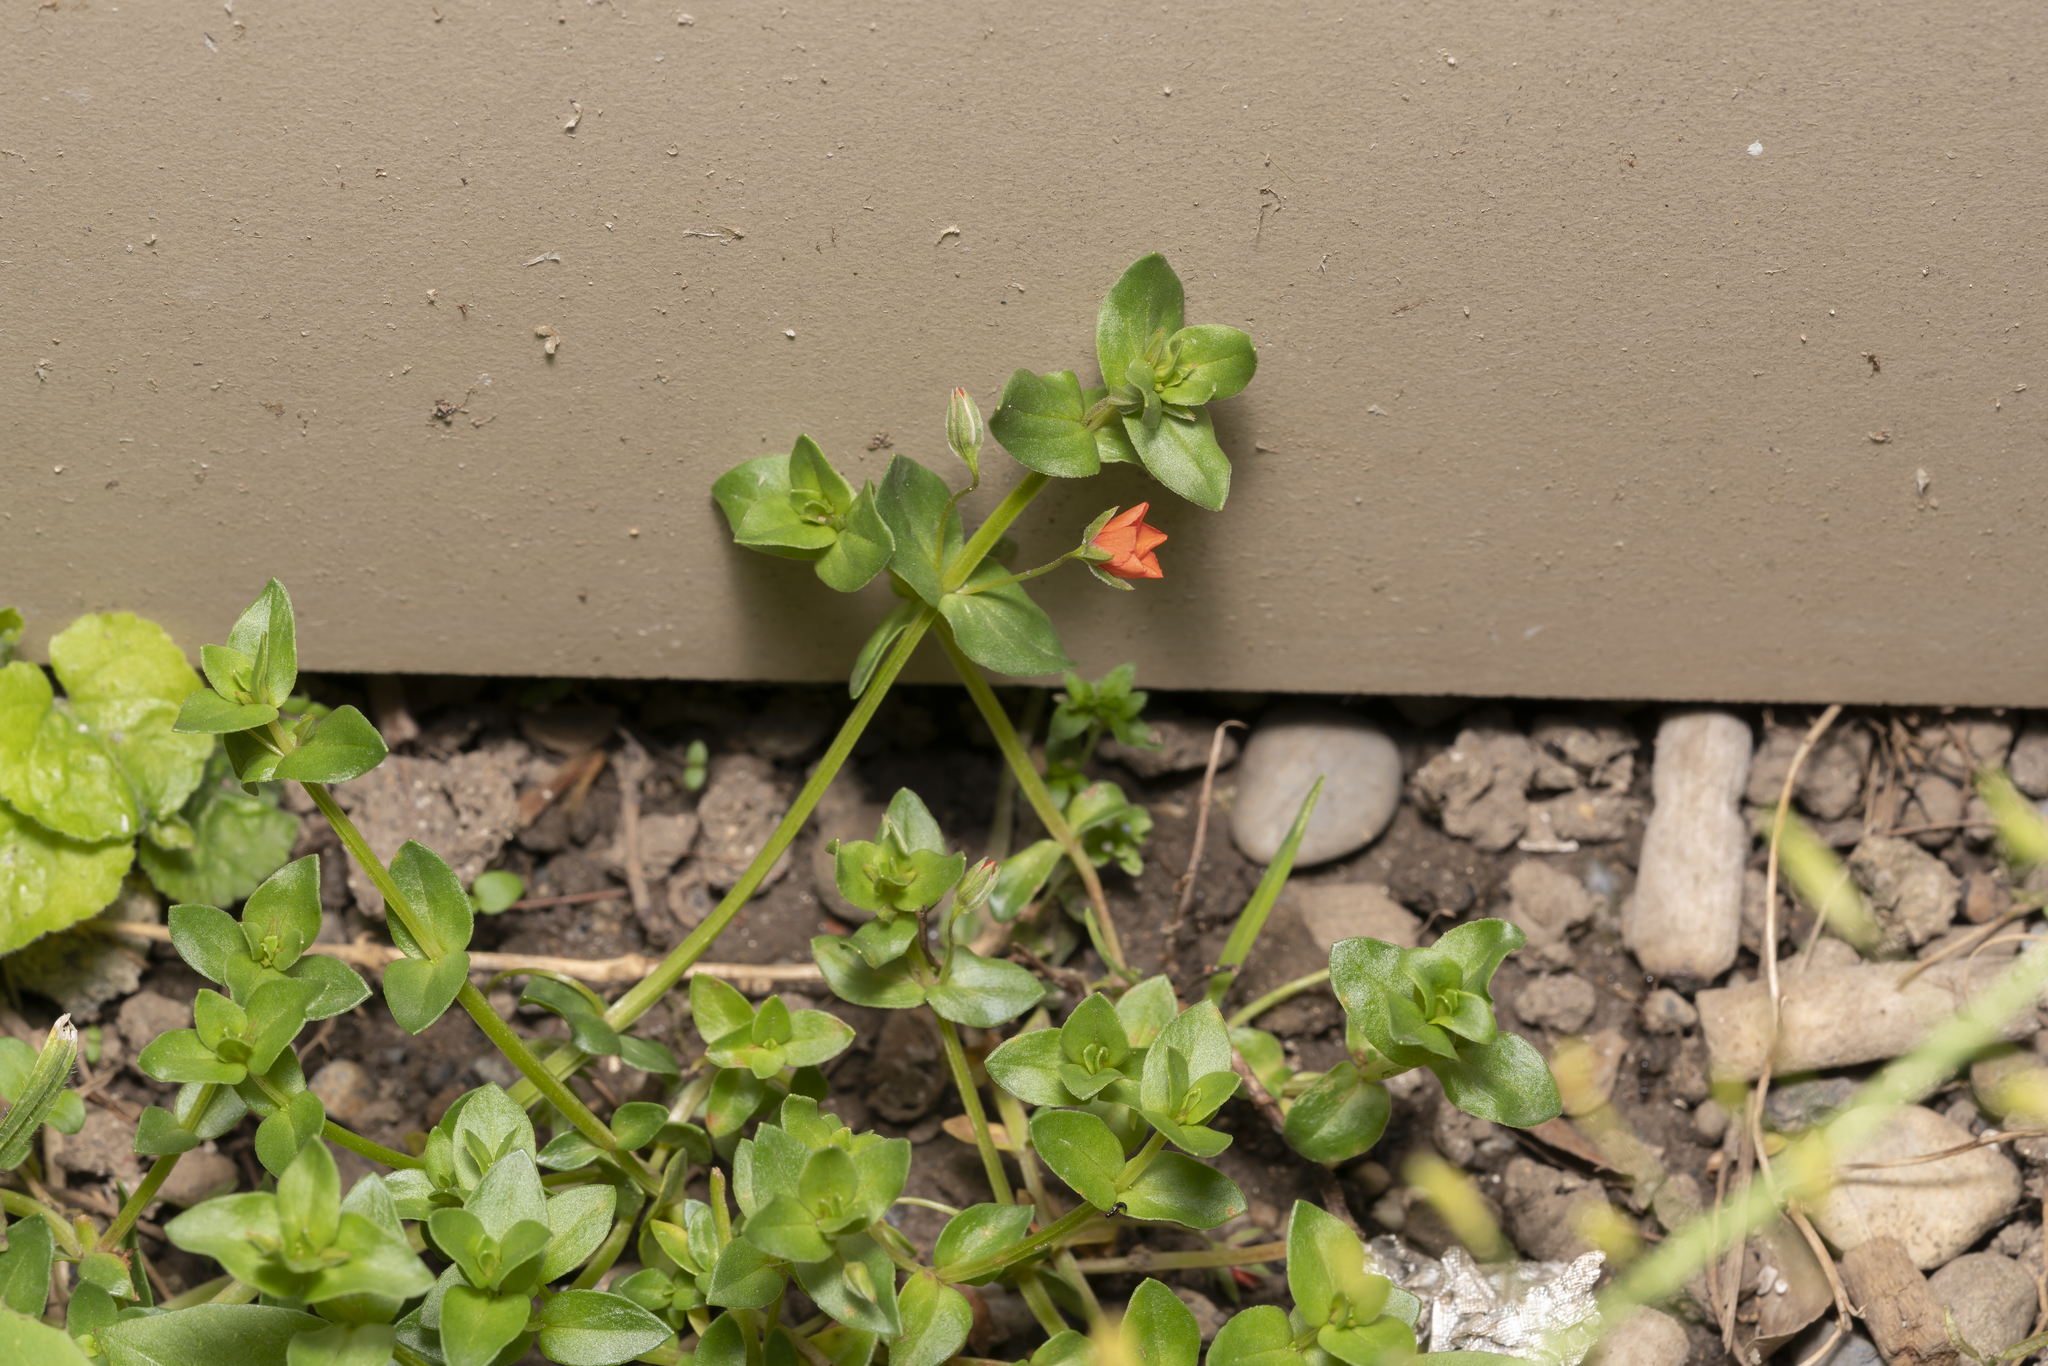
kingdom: Plantae
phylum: Tracheophyta
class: Magnoliopsida
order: Ericales
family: Primulaceae
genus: Lysimachia
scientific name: Lysimachia arvensis
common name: Scarlet pimpernel
